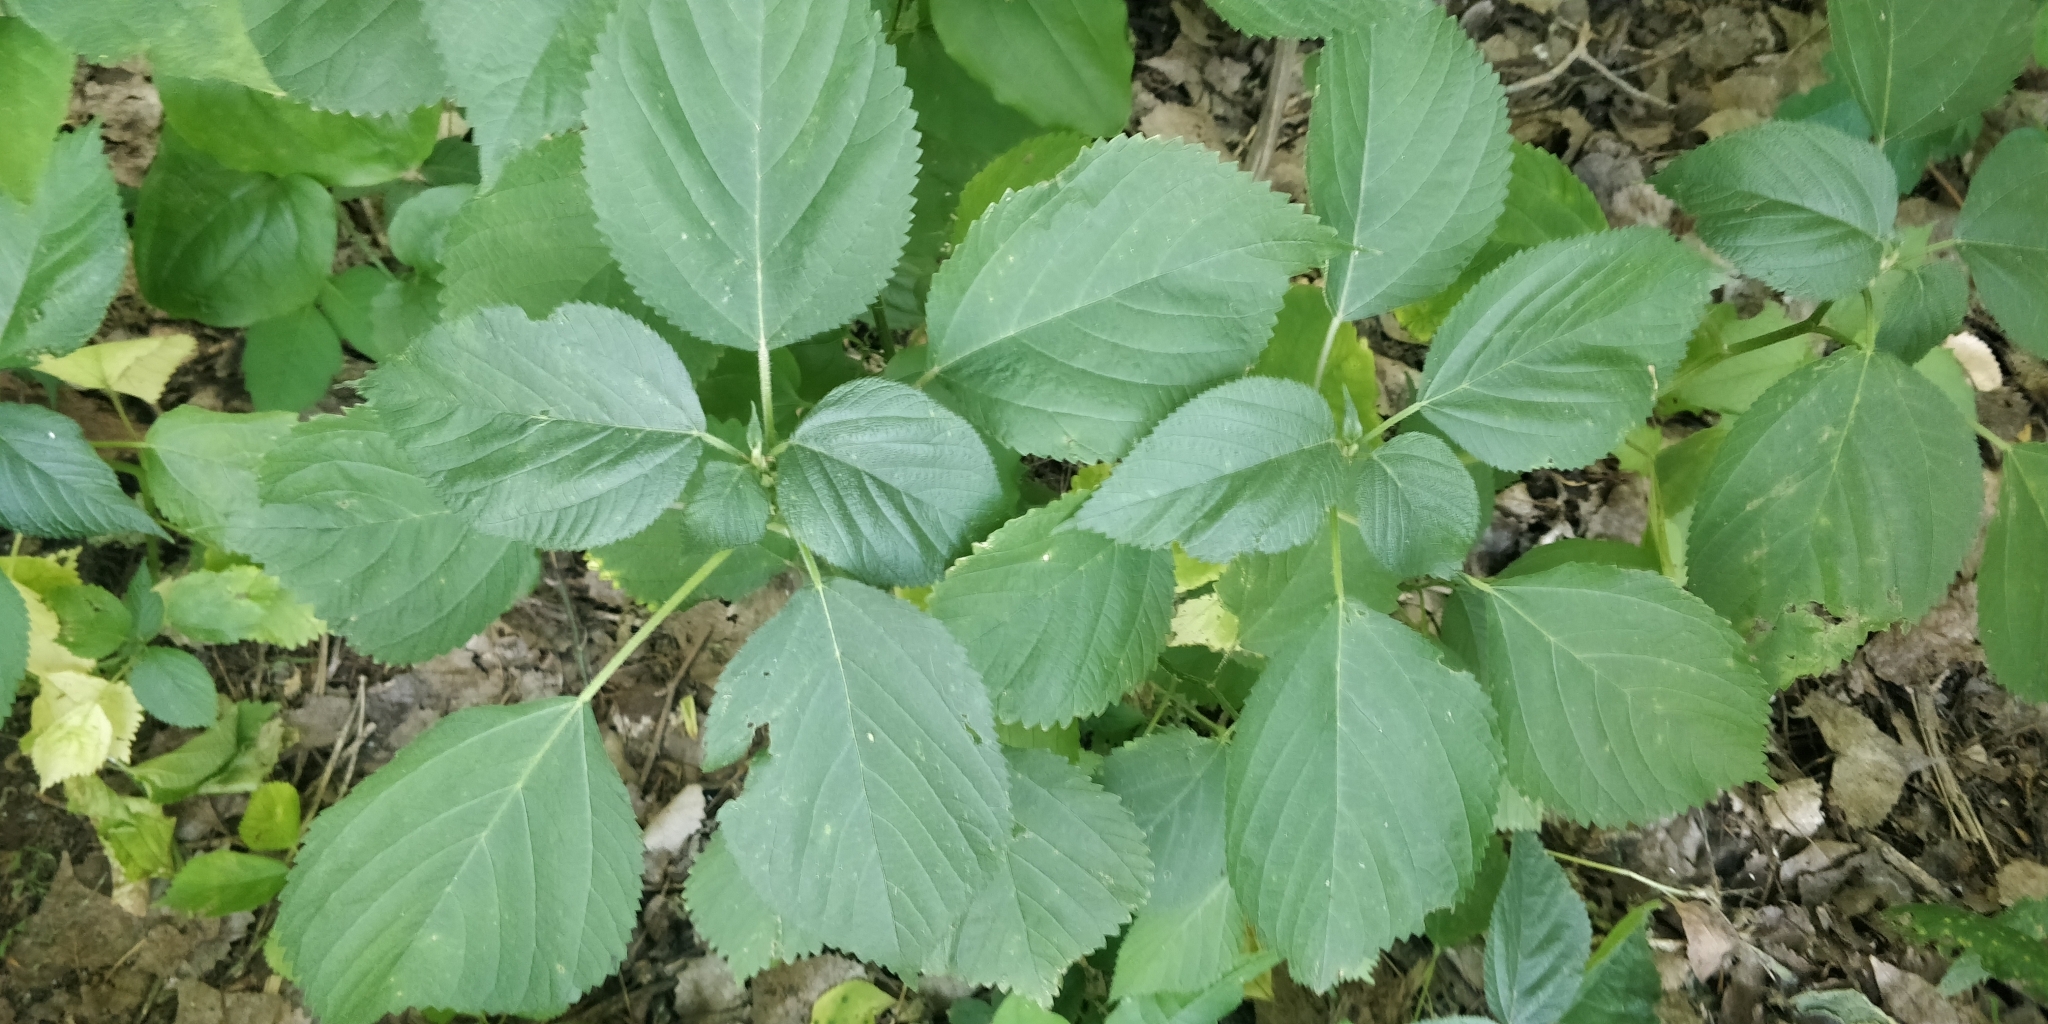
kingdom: Plantae
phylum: Tracheophyta
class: Magnoliopsida
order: Rosales
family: Urticaceae
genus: Laportea
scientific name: Laportea canadensis
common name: Canada nettle
